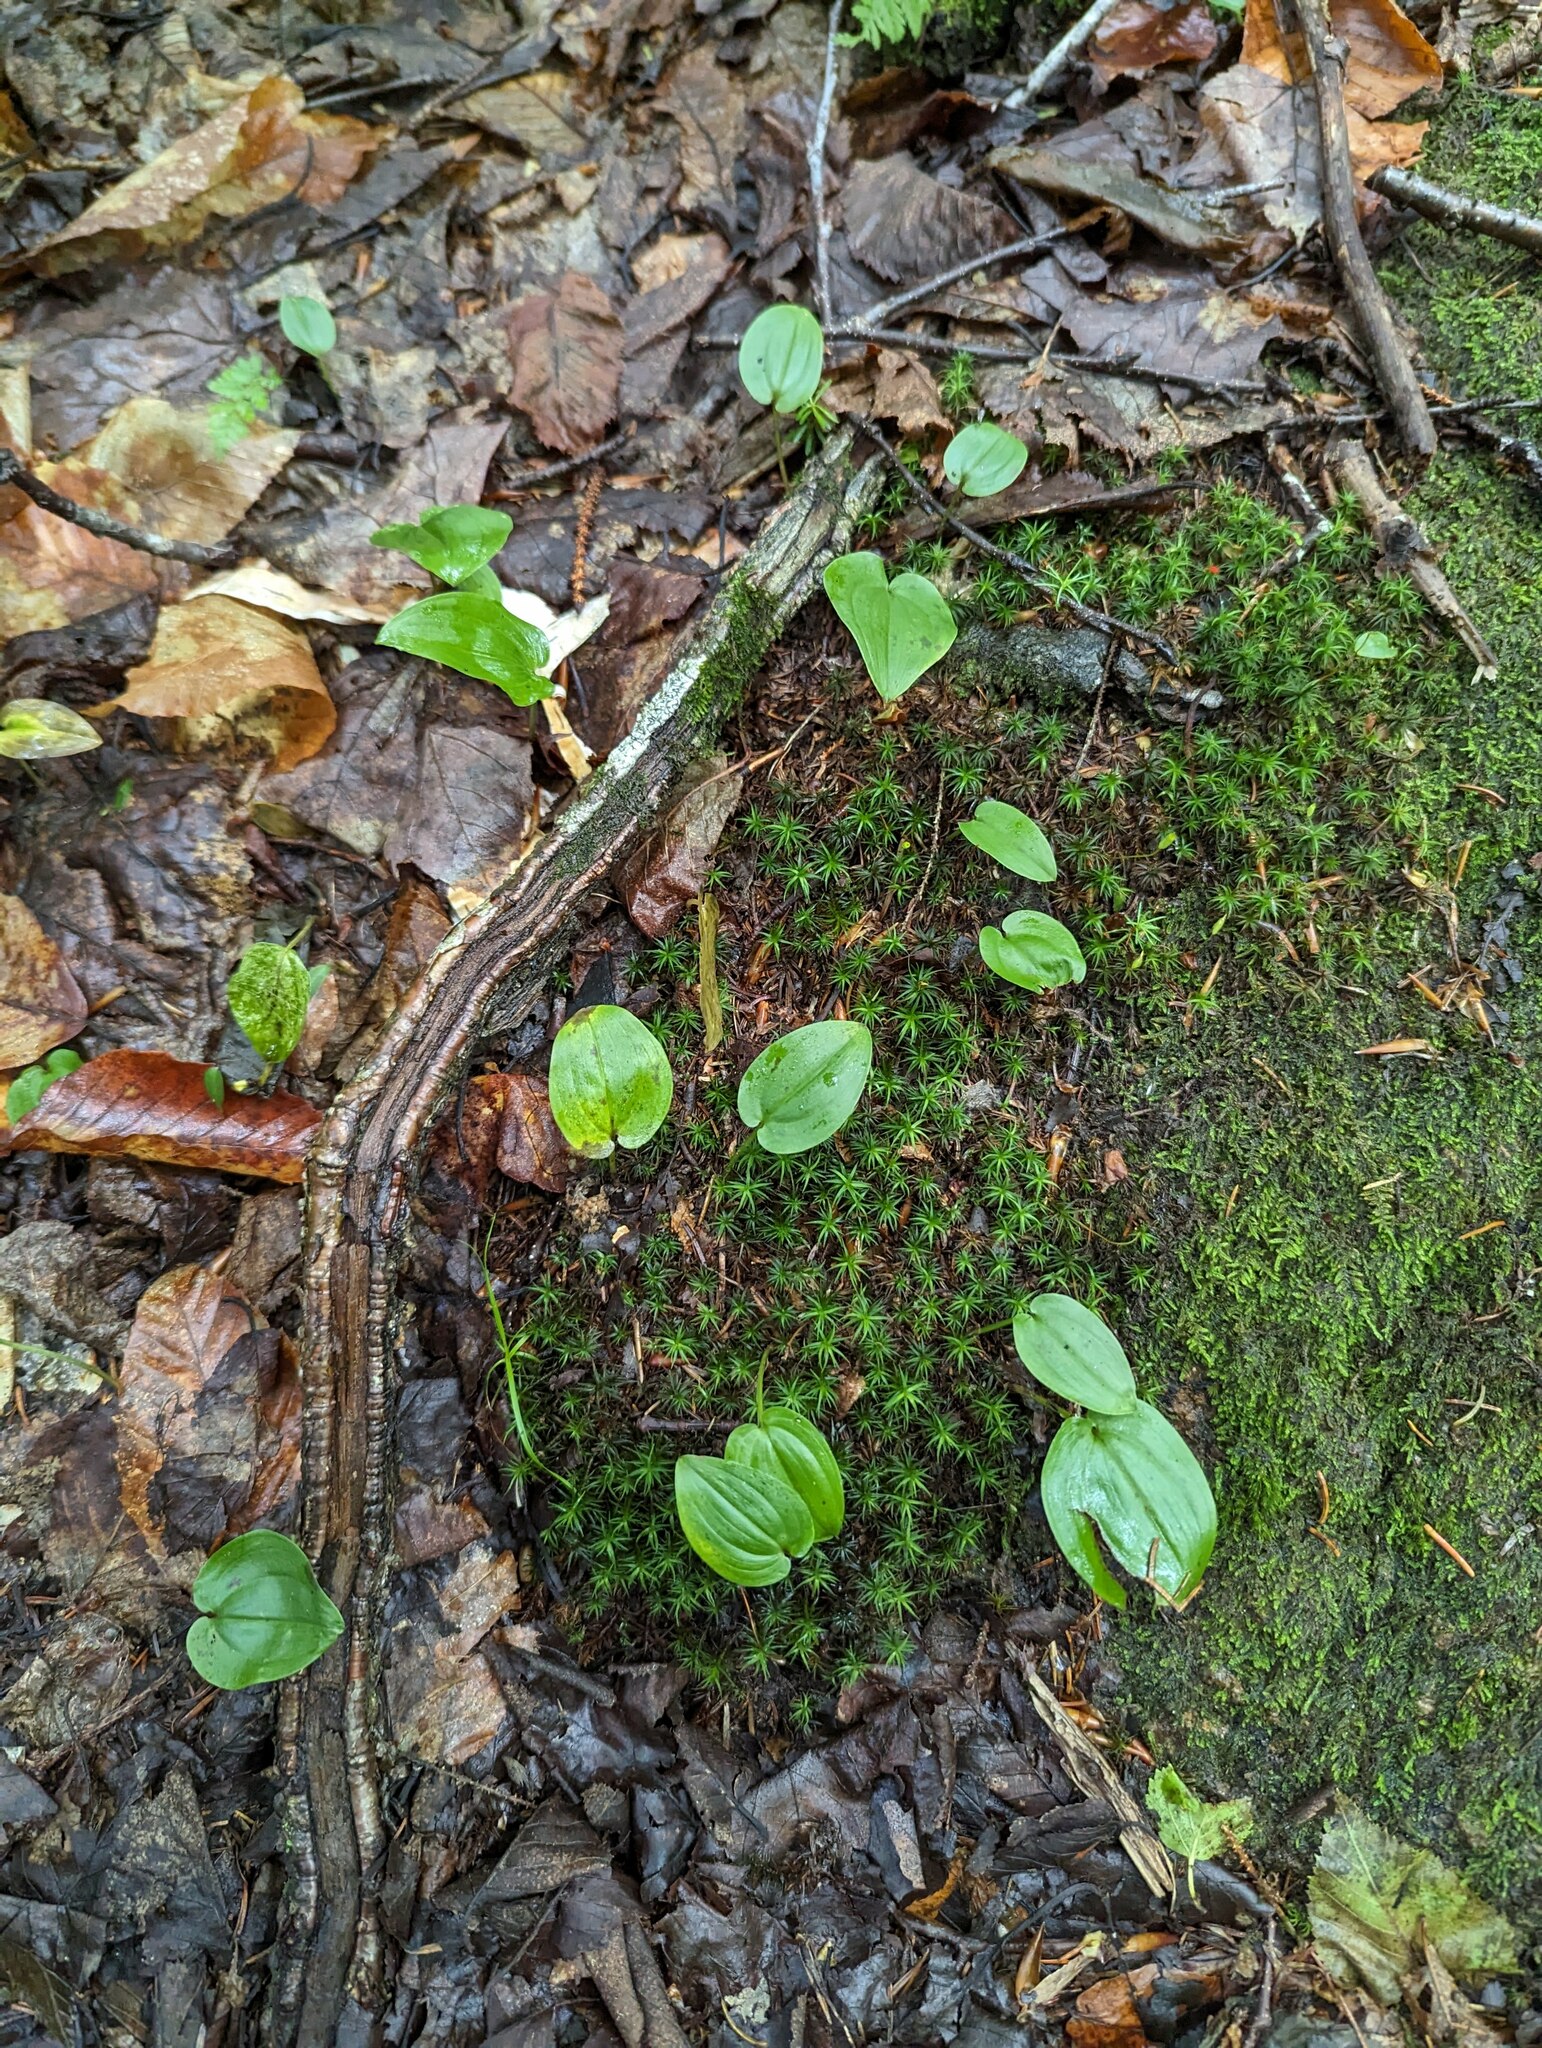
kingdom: Plantae
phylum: Tracheophyta
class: Liliopsida
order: Asparagales
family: Asparagaceae
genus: Maianthemum
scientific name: Maianthemum canadense
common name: False lily-of-the-valley
